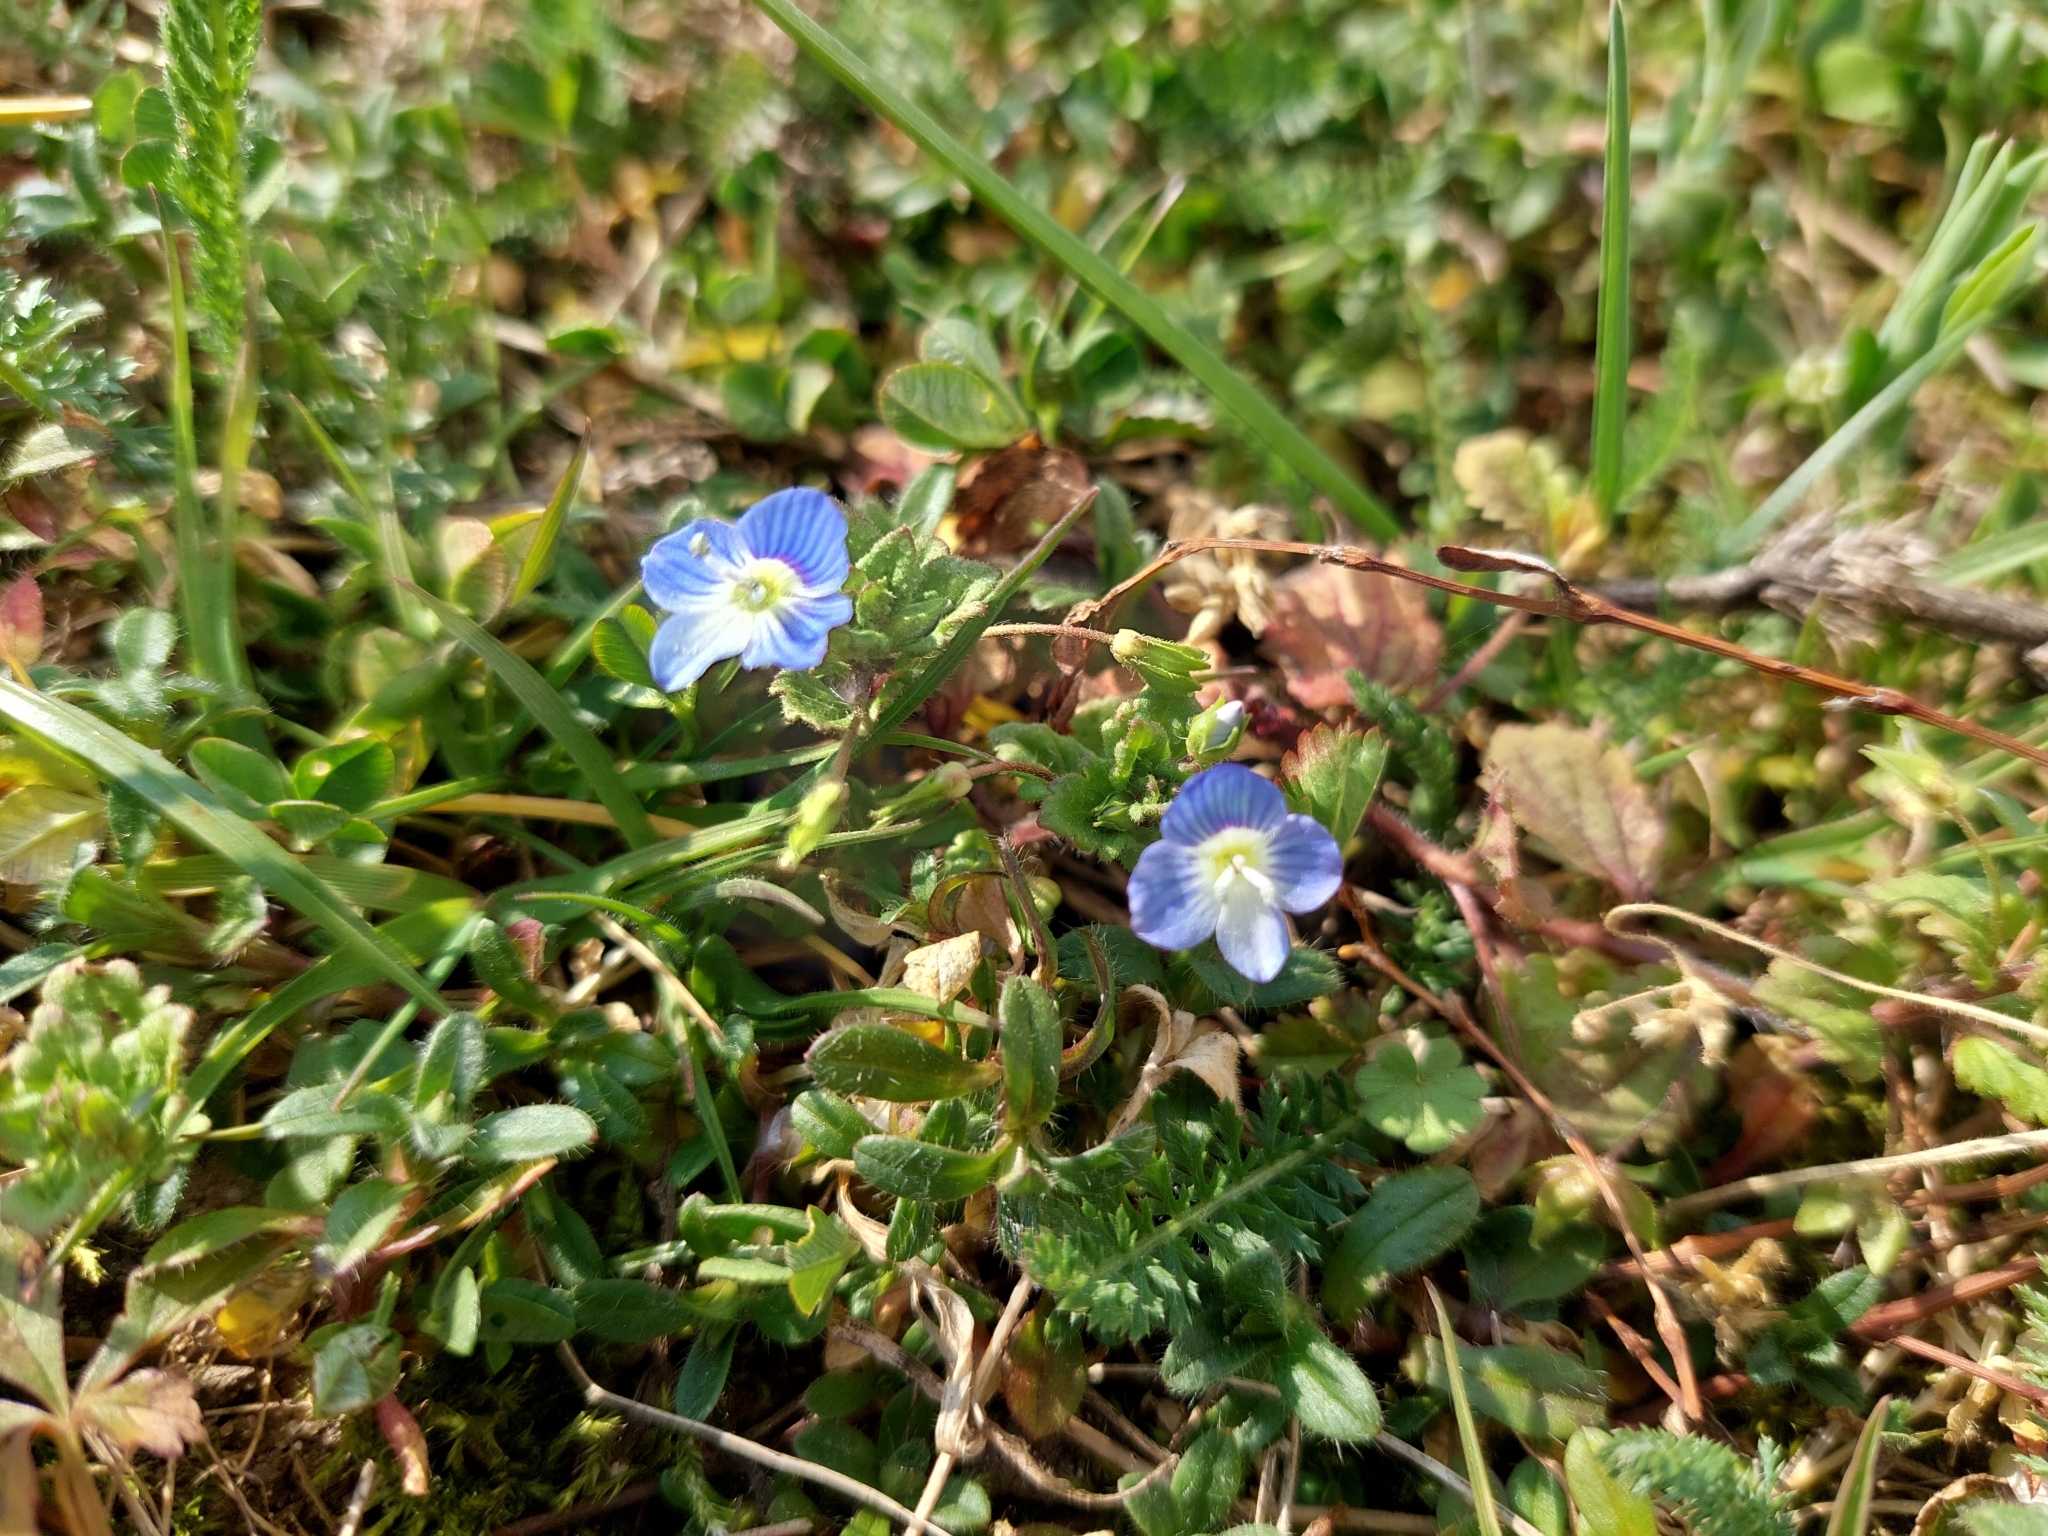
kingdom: Plantae
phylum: Tracheophyta
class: Magnoliopsida
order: Lamiales
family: Plantaginaceae
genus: Veronica
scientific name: Veronica persica
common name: Common field-speedwell
